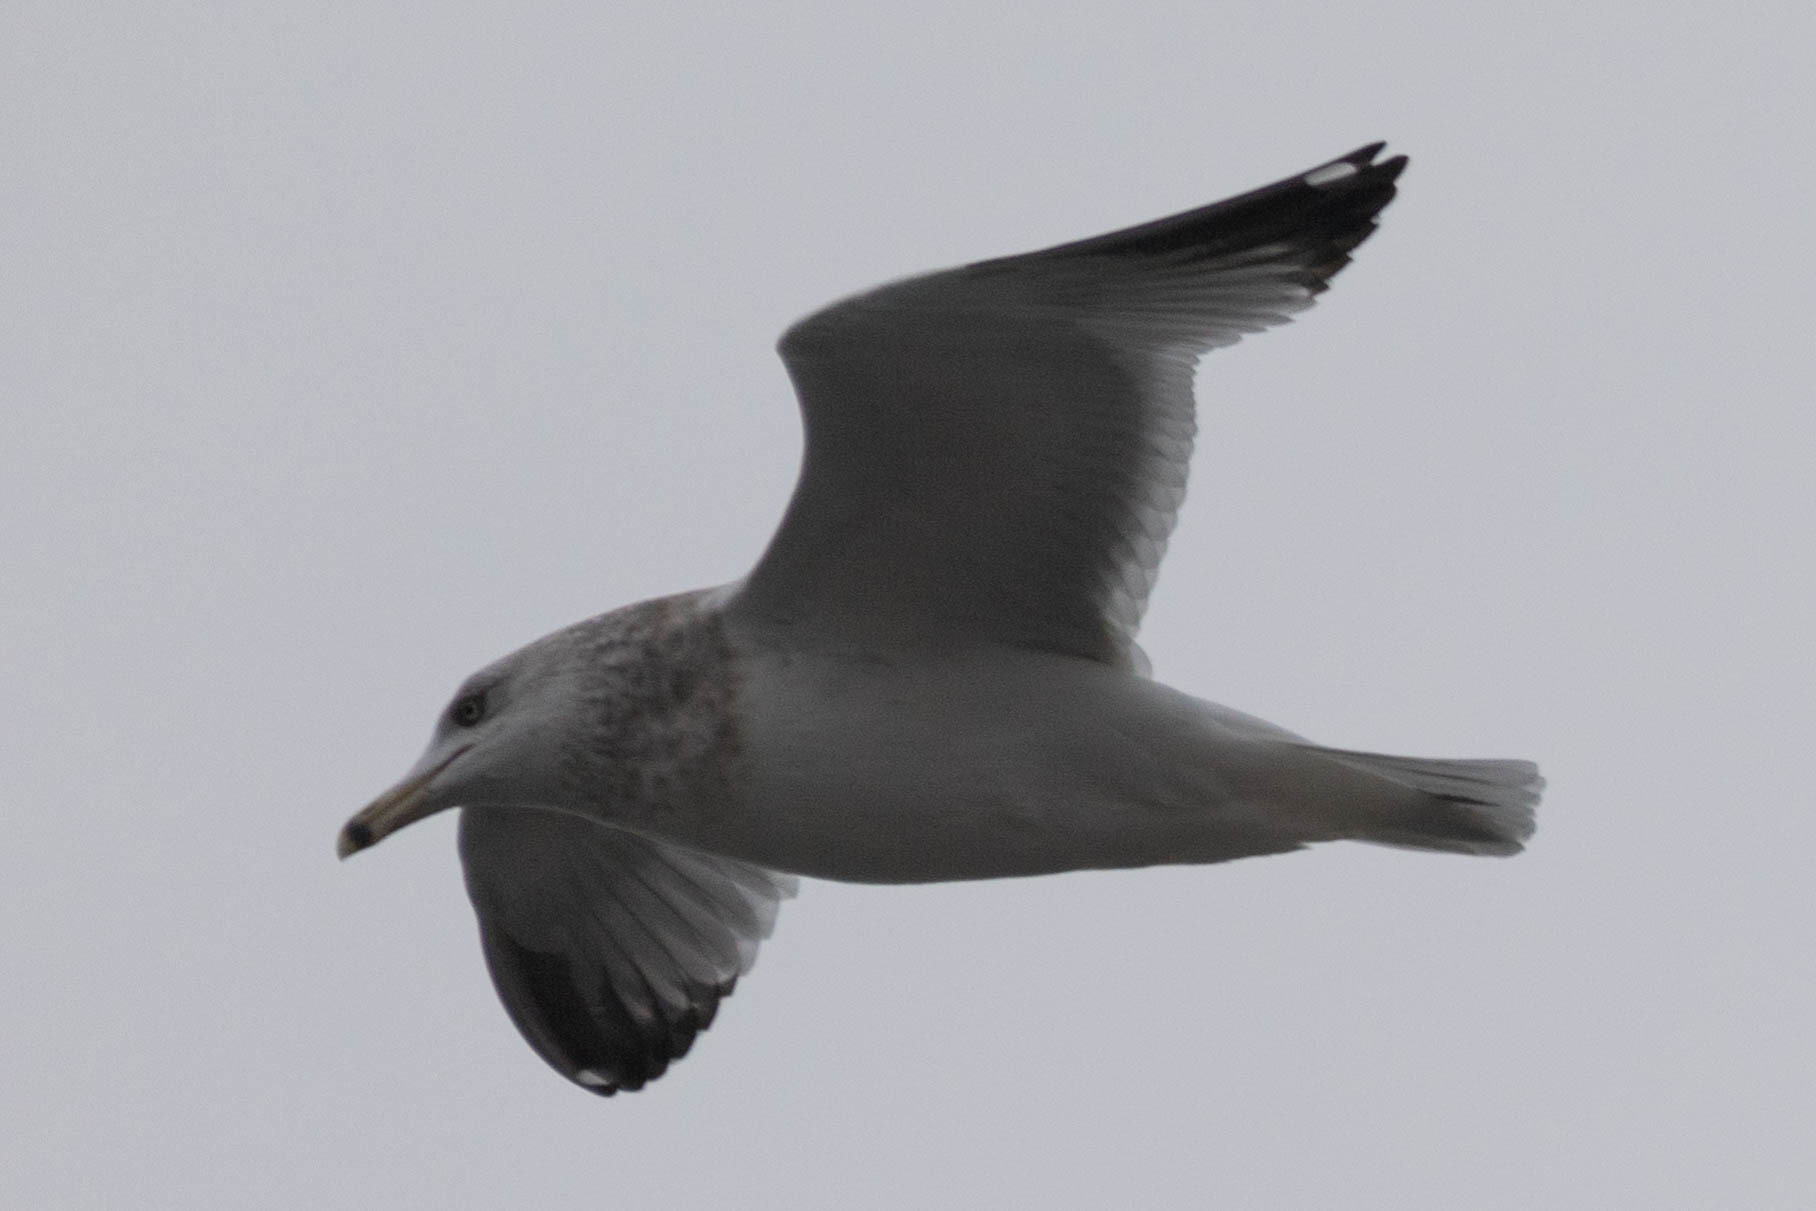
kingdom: Animalia
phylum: Chordata
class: Aves
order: Charadriiformes
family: Laridae
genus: Larus
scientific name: Larus delawarensis
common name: Ring-billed gull
